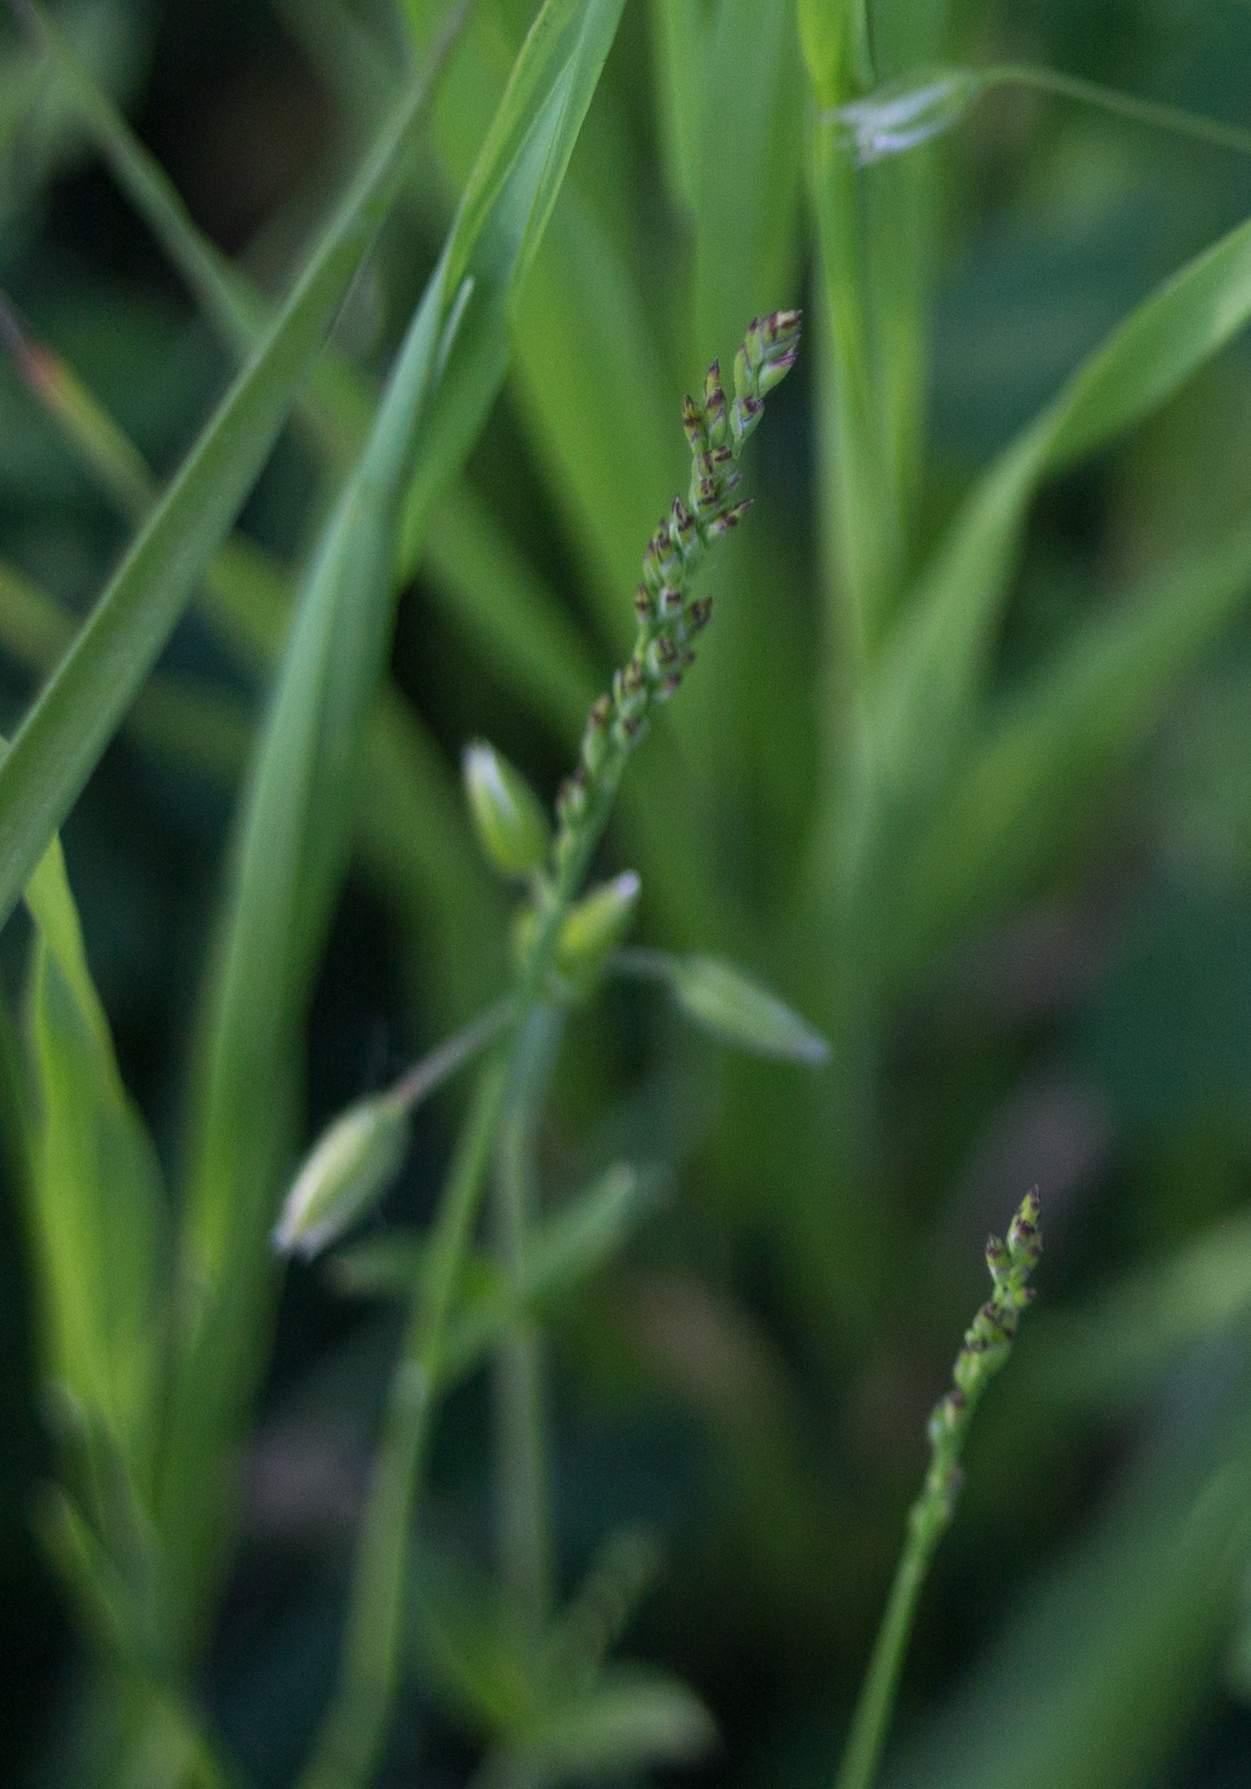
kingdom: Plantae
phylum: Tracheophyta
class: Liliopsida
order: Poales
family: Poaceae
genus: Poa
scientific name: Poa compressa
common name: Canada bluegrass
